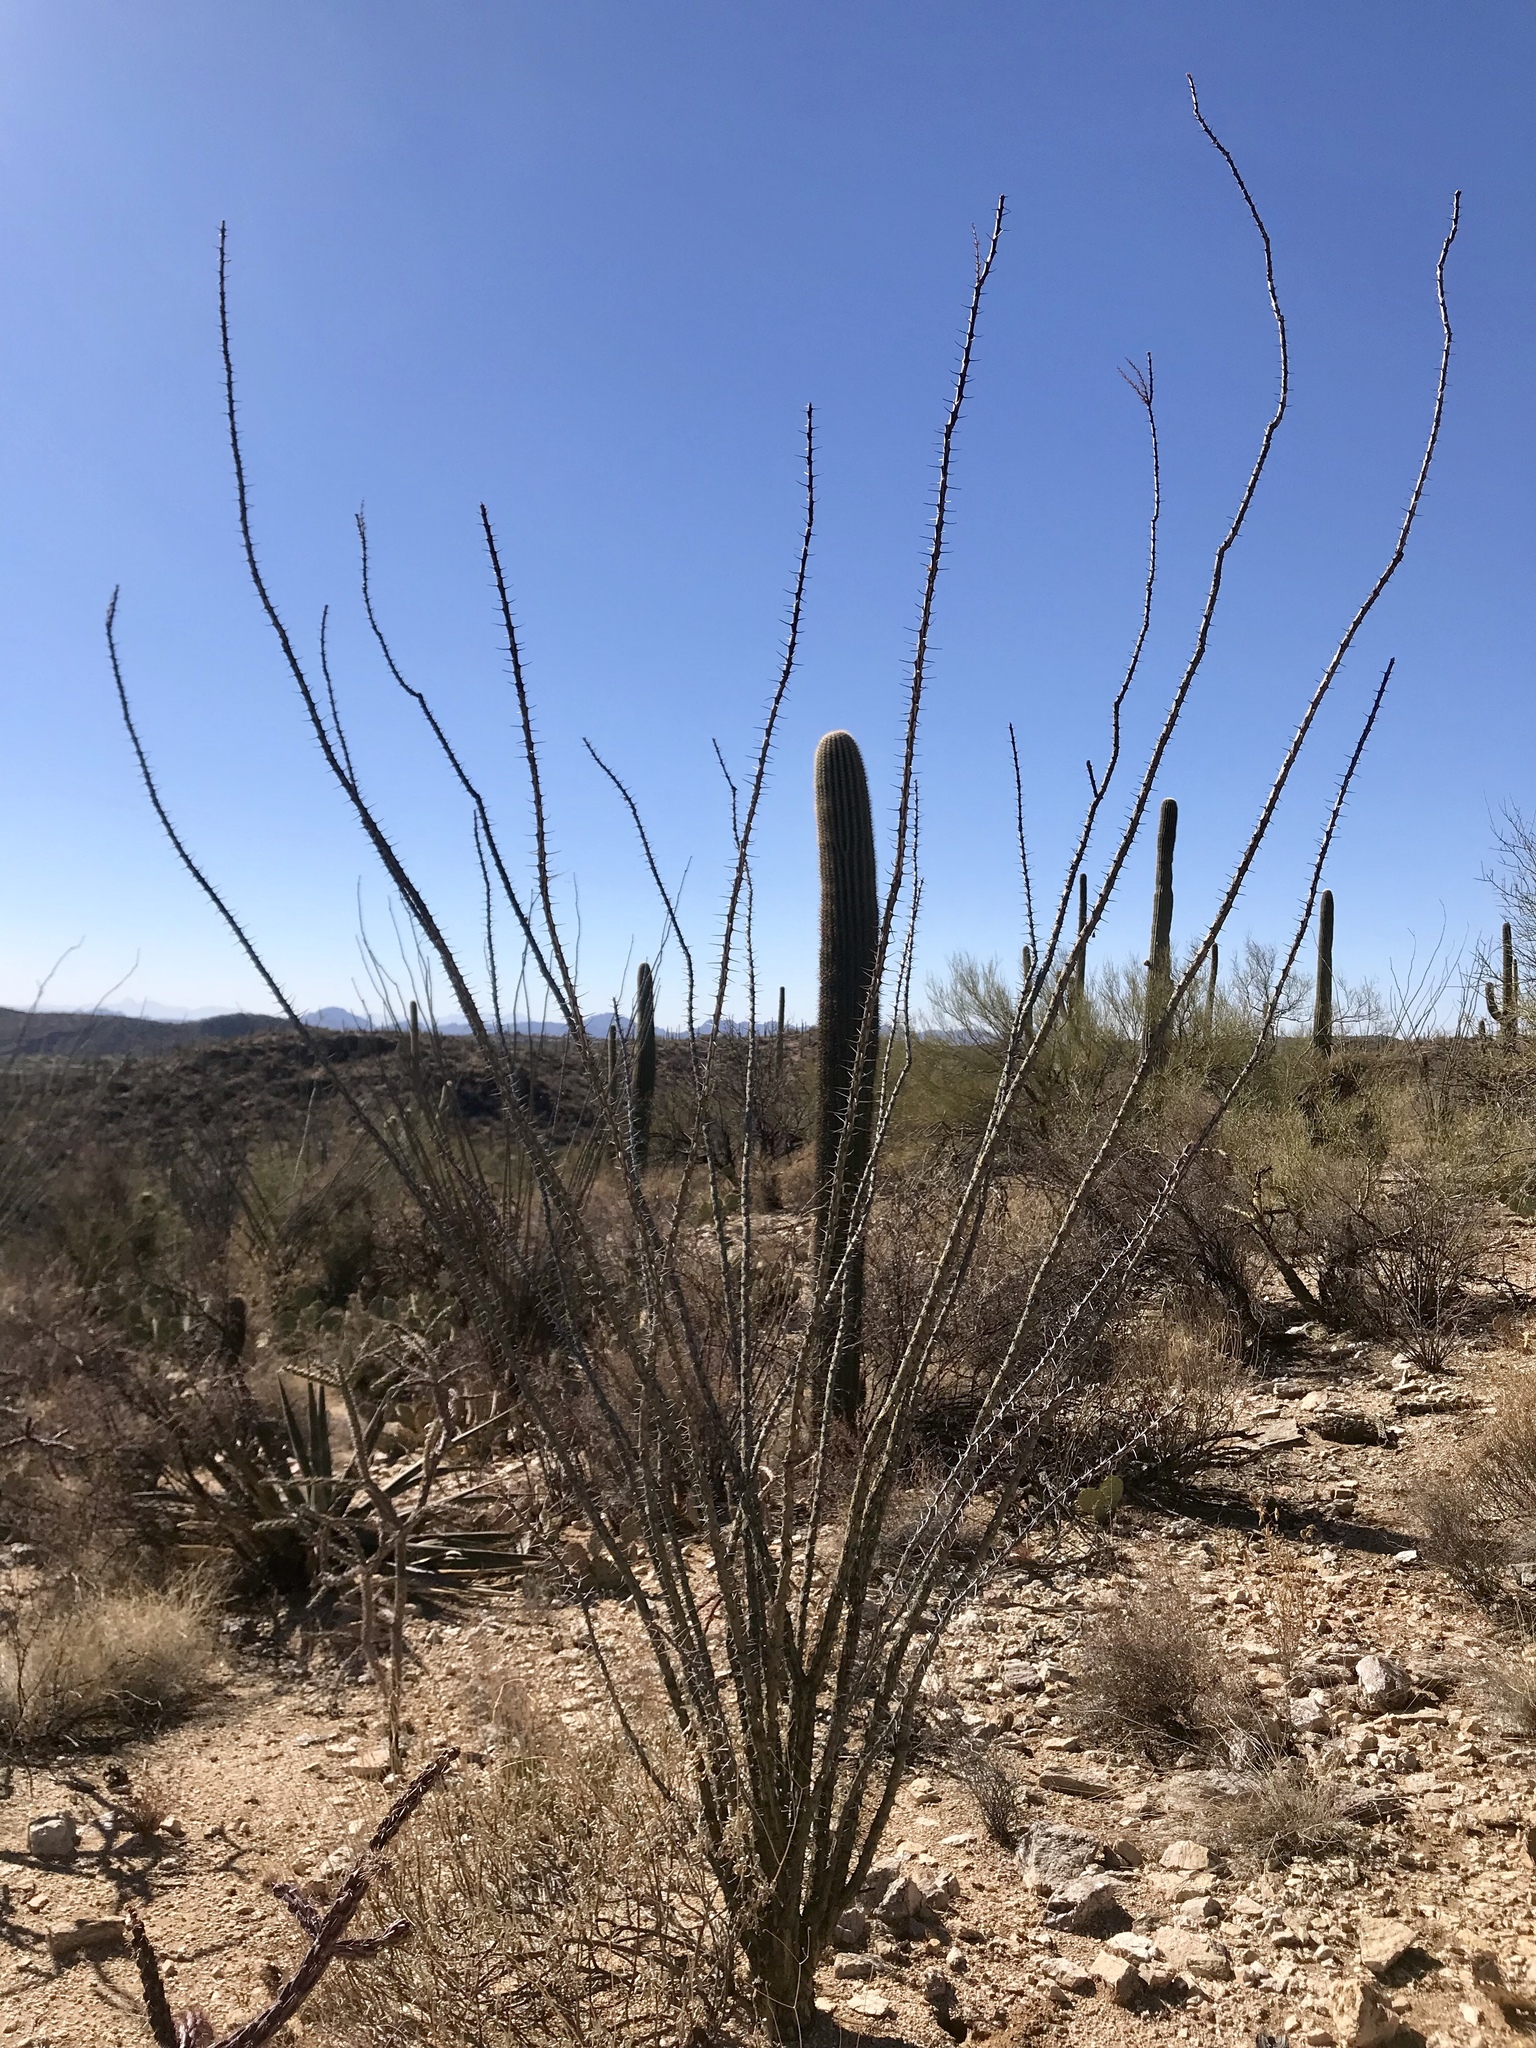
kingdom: Plantae
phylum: Tracheophyta
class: Magnoliopsida
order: Ericales
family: Fouquieriaceae
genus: Fouquieria
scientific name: Fouquieria splendens
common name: Vine-cactus
